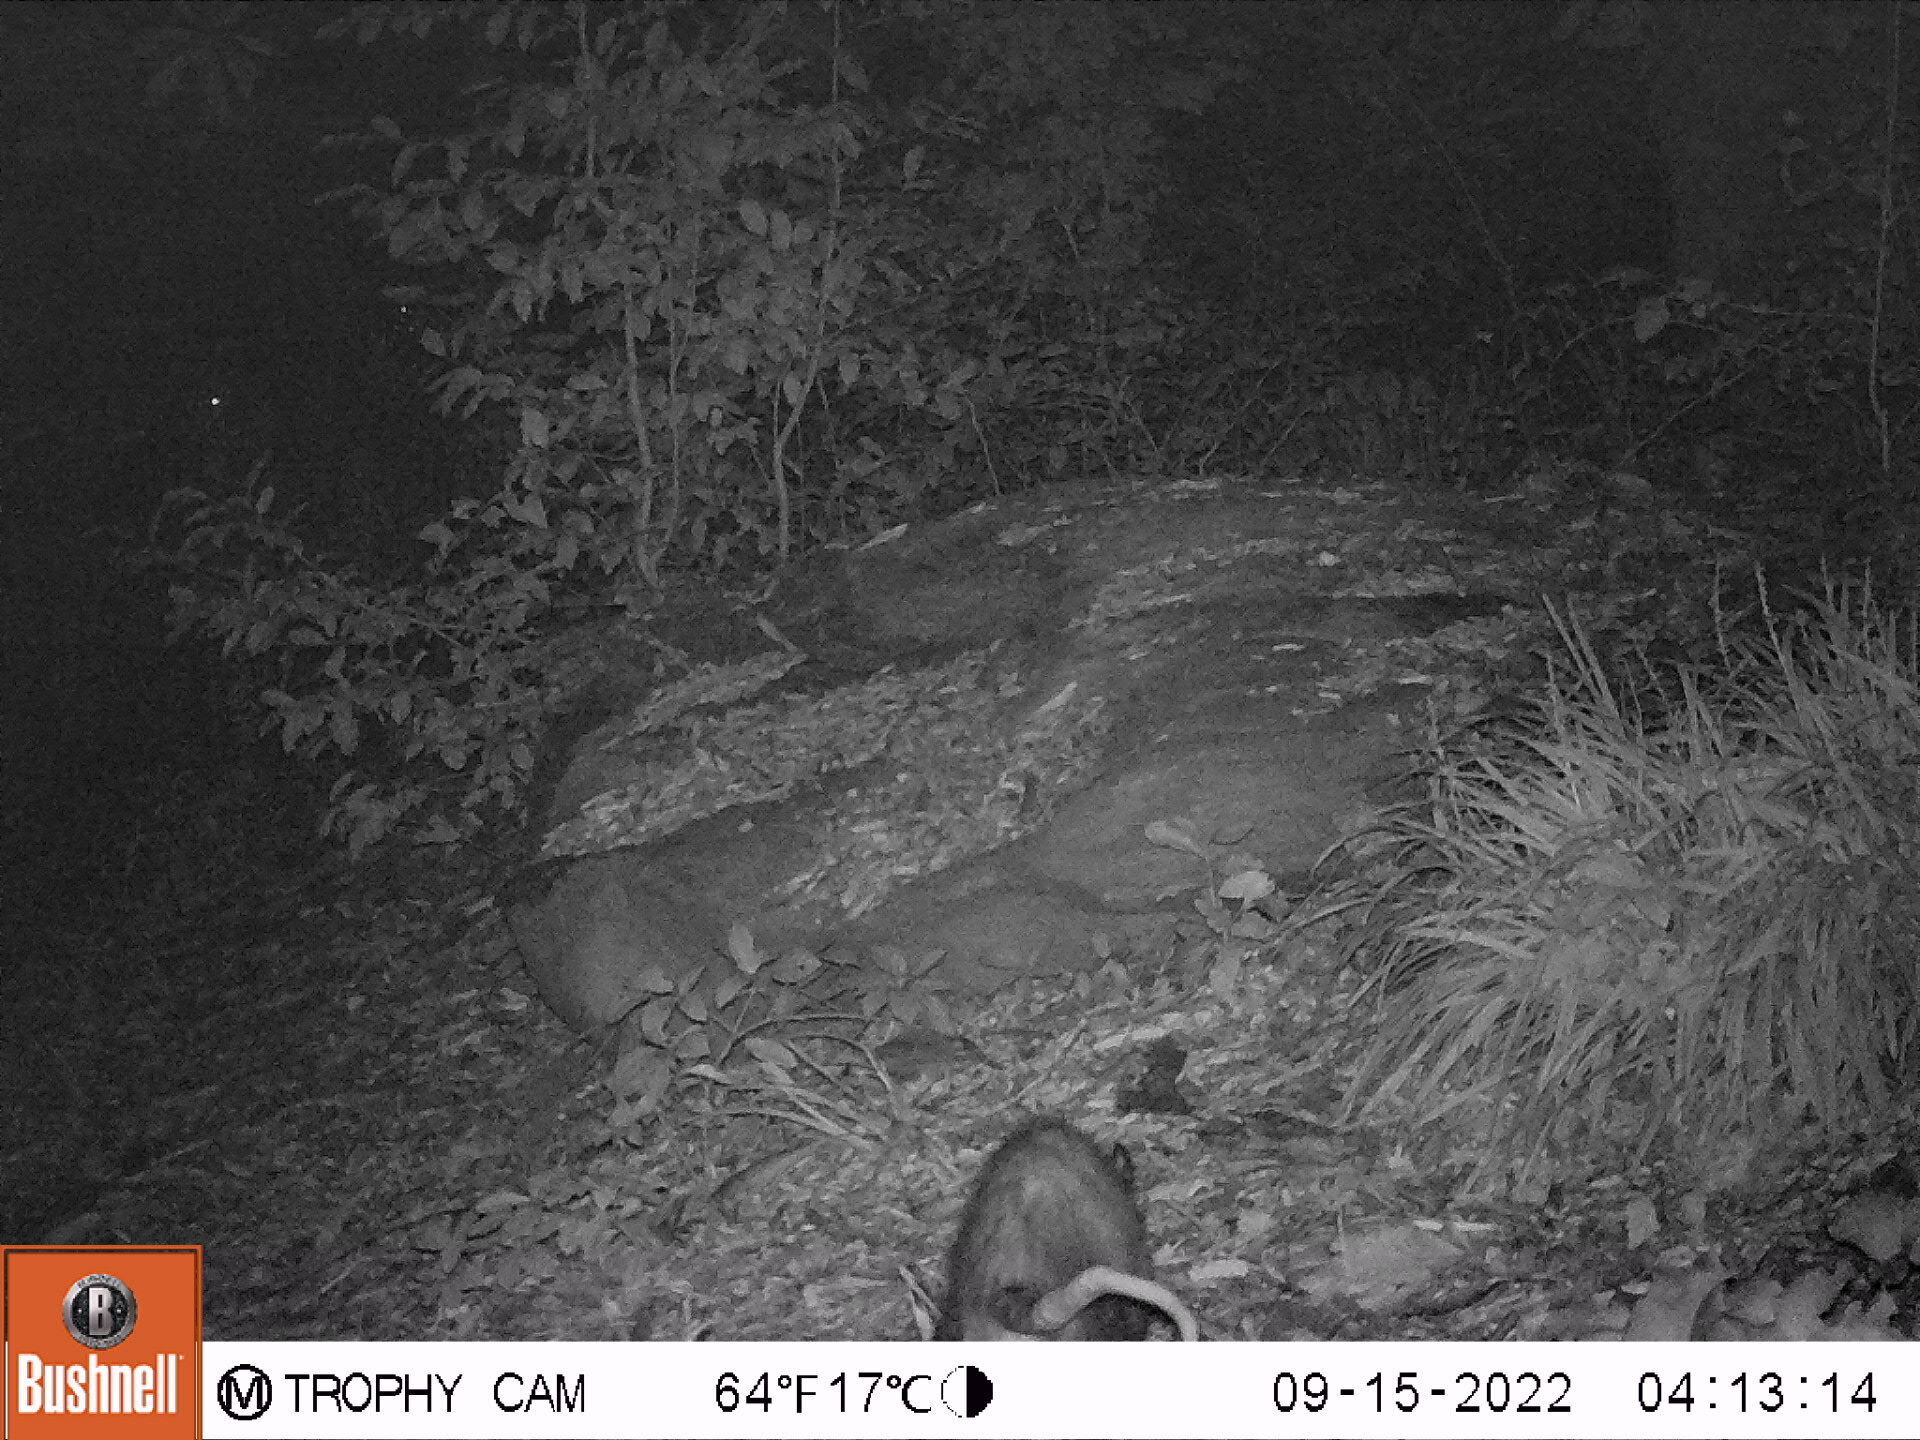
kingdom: Animalia
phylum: Chordata
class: Mammalia
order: Didelphimorphia
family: Didelphidae
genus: Didelphis
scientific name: Didelphis virginiana
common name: Virginia opossum
